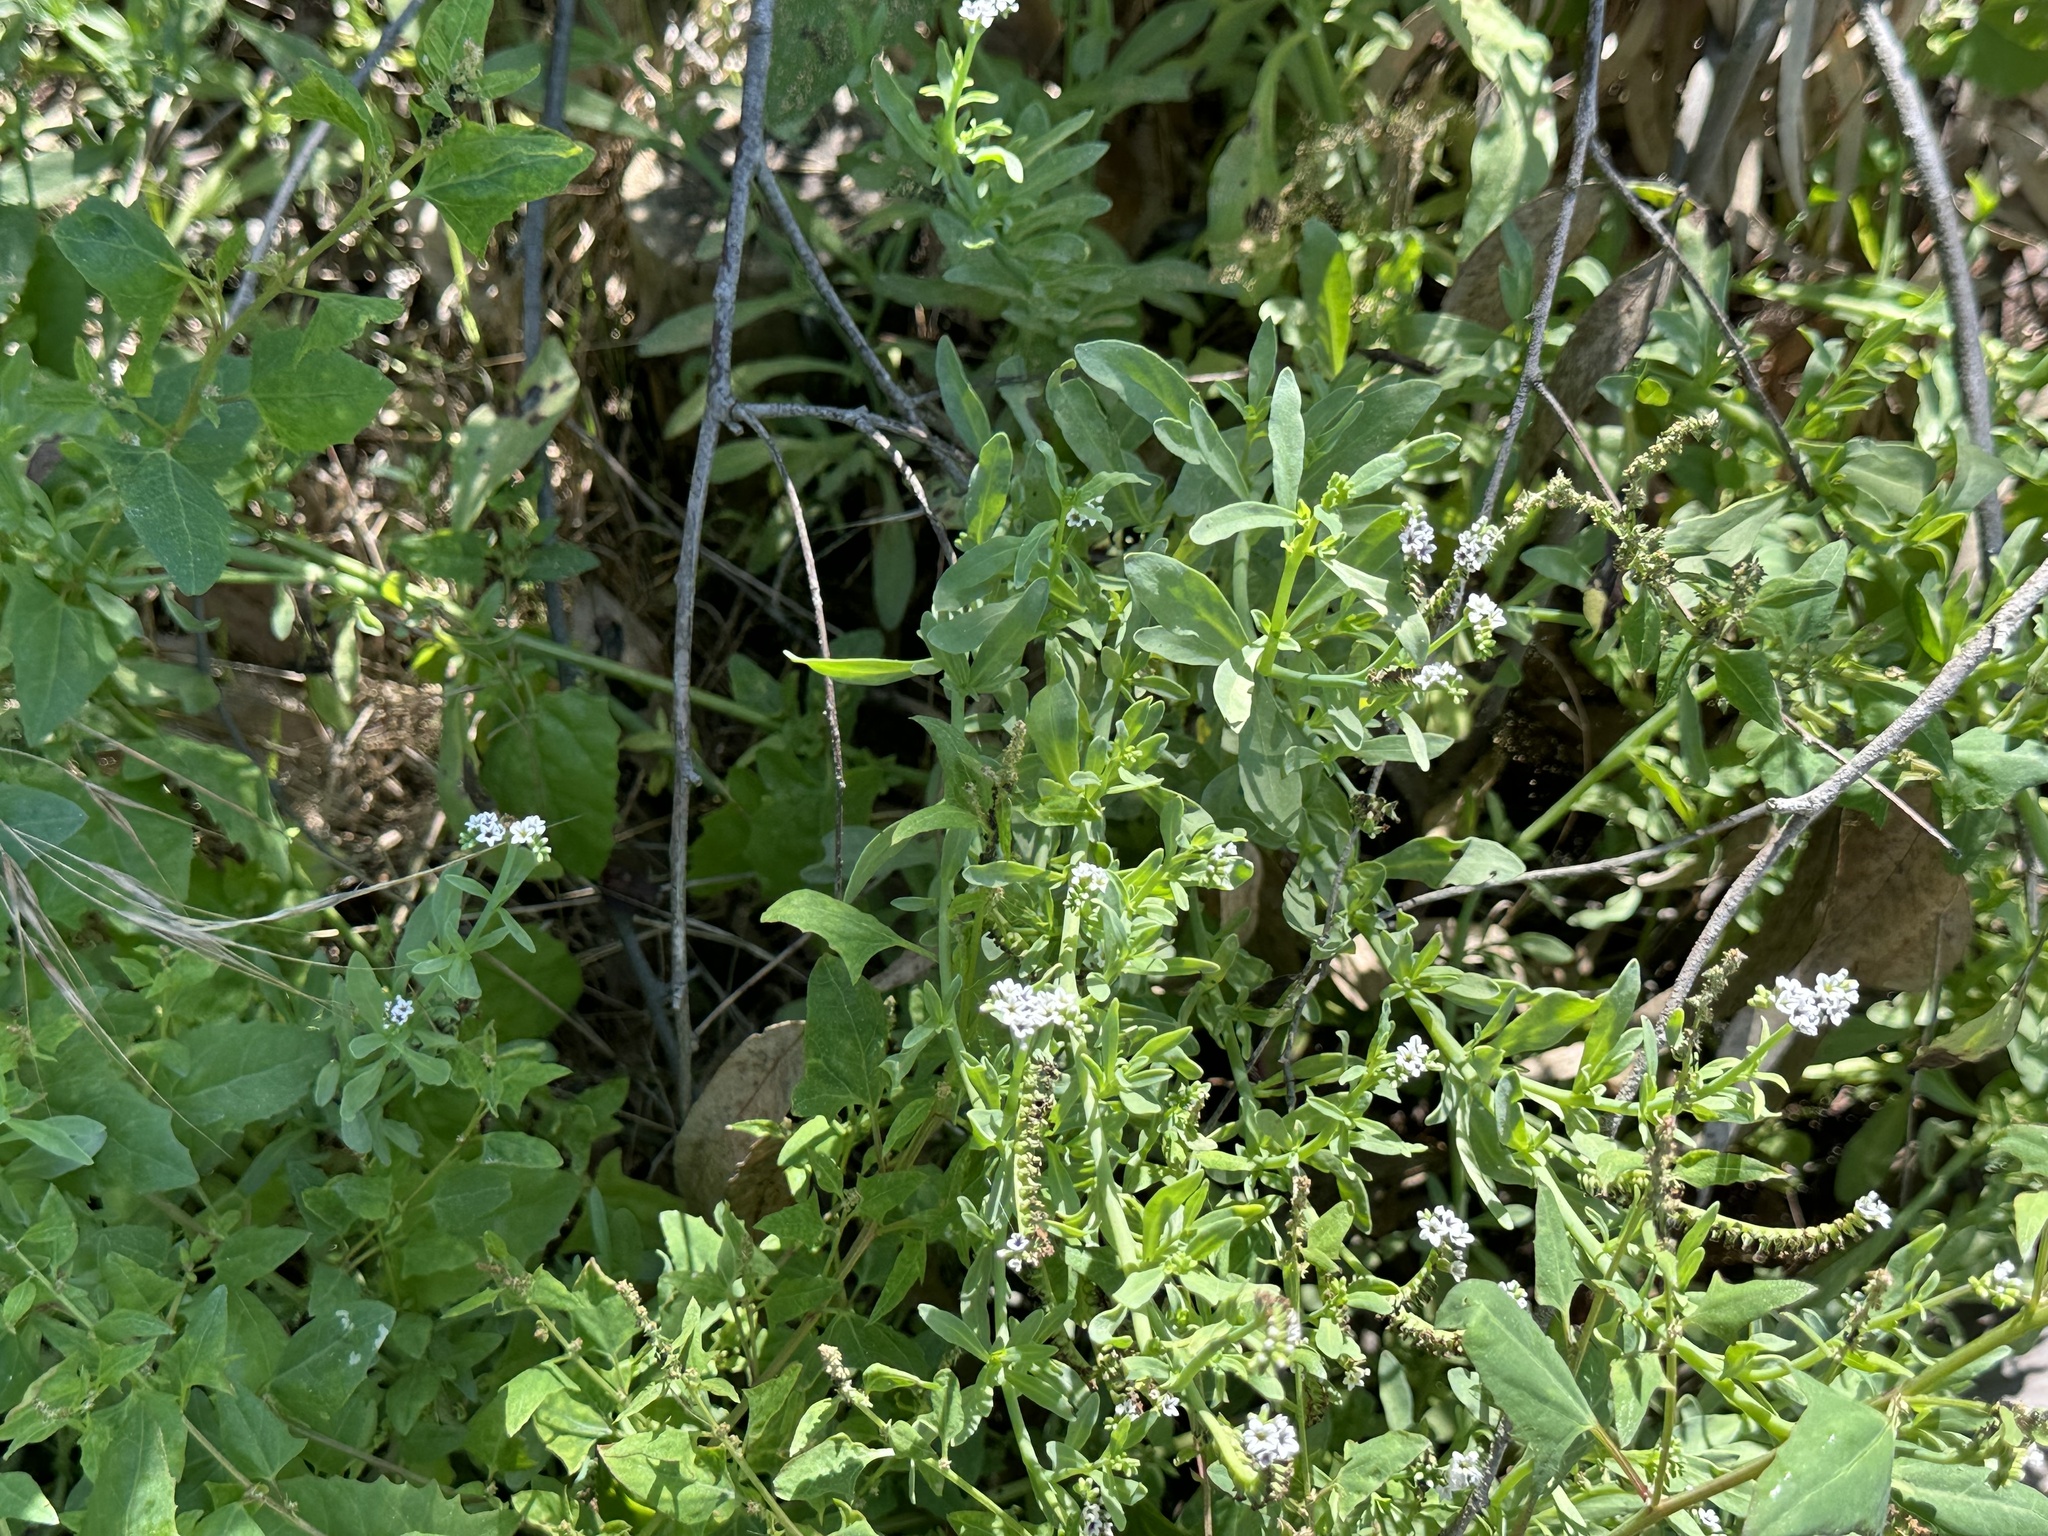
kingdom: Plantae
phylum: Tracheophyta
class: Magnoliopsida
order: Boraginales
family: Heliotropiaceae
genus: Heliotropium
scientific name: Heliotropium curassavicum
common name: Seaside heliotrope
